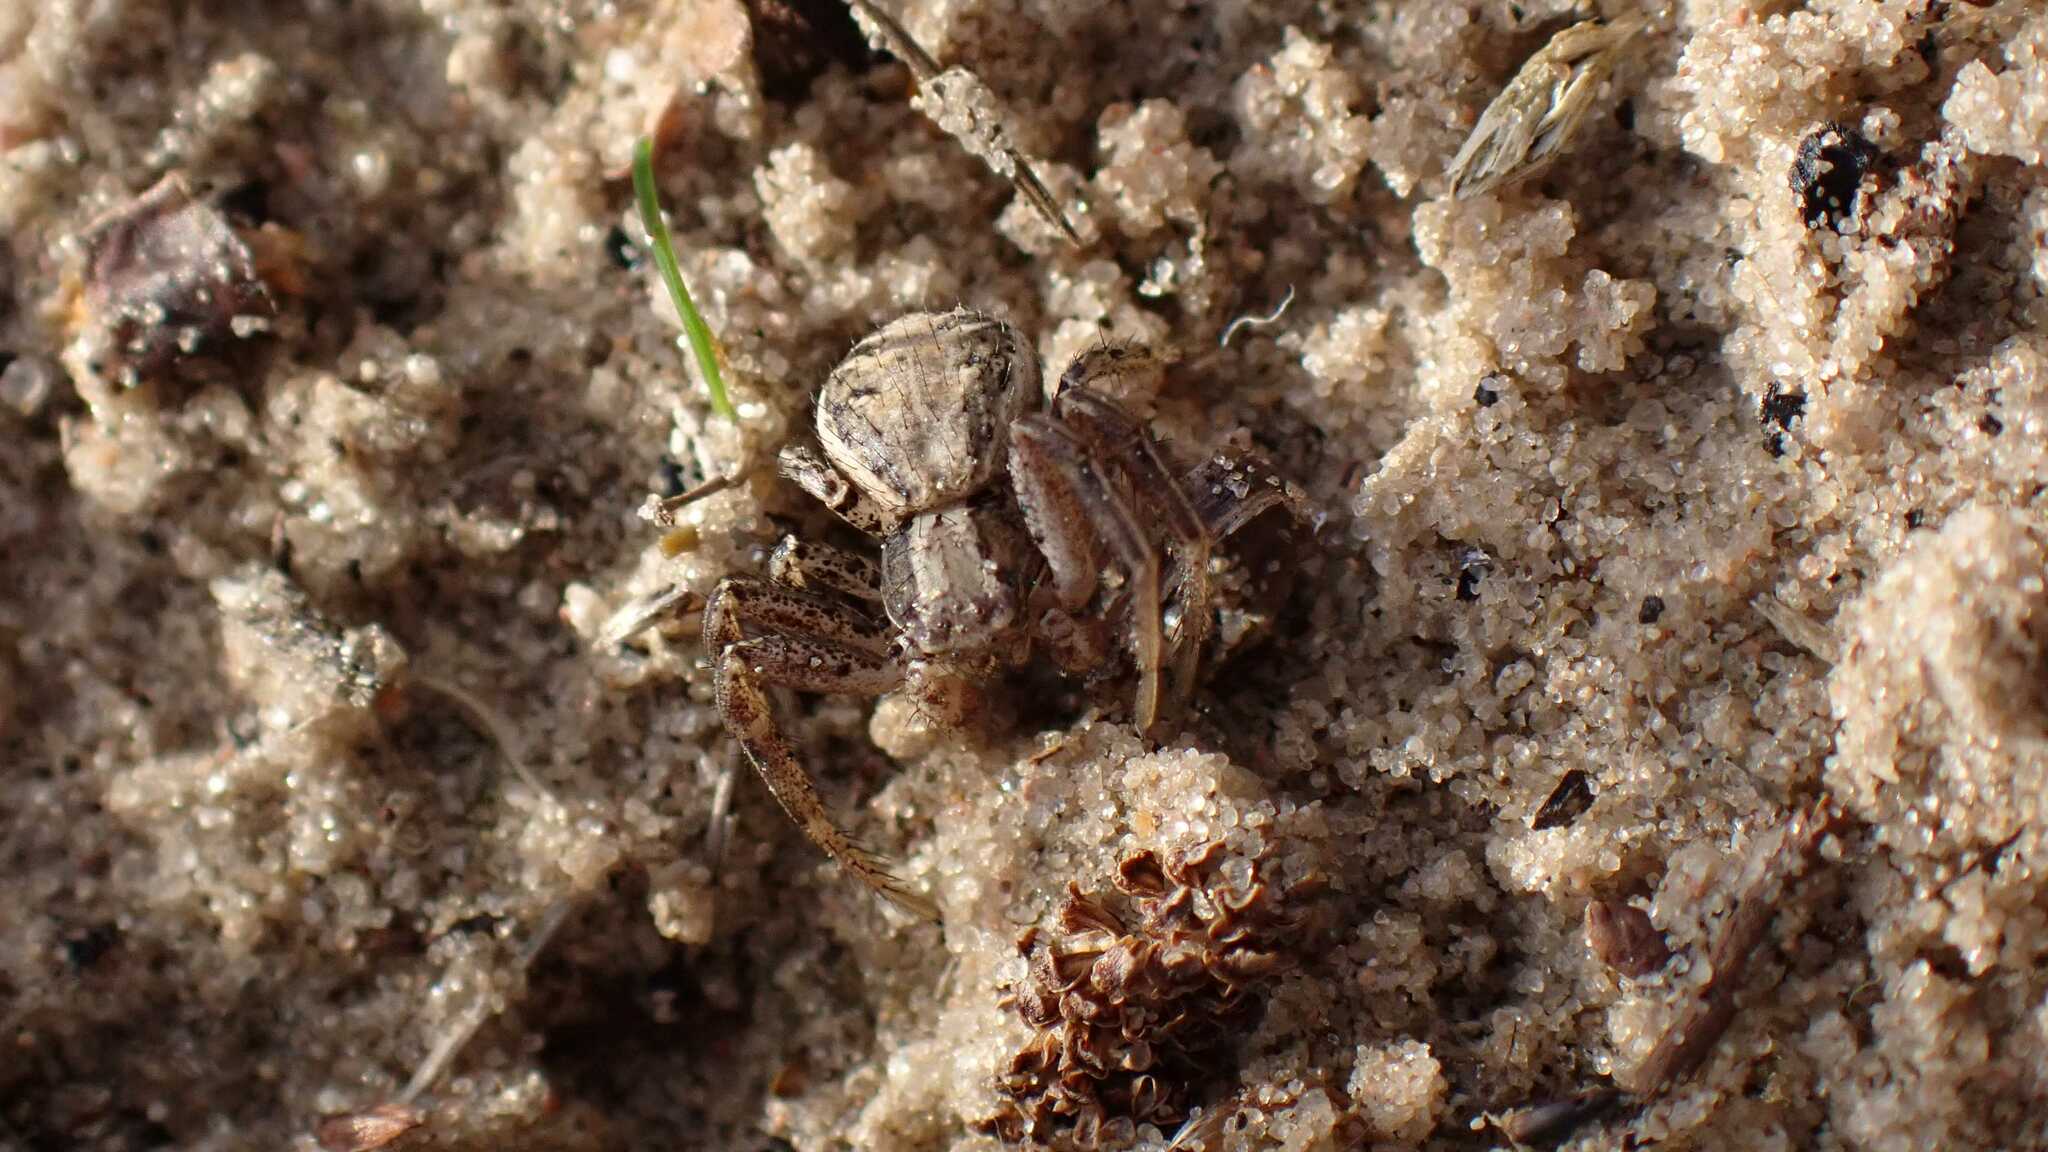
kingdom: Animalia
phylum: Arthropoda
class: Arachnida
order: Araneae
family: Thomisidae
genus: Xysticus
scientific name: Xysticus
